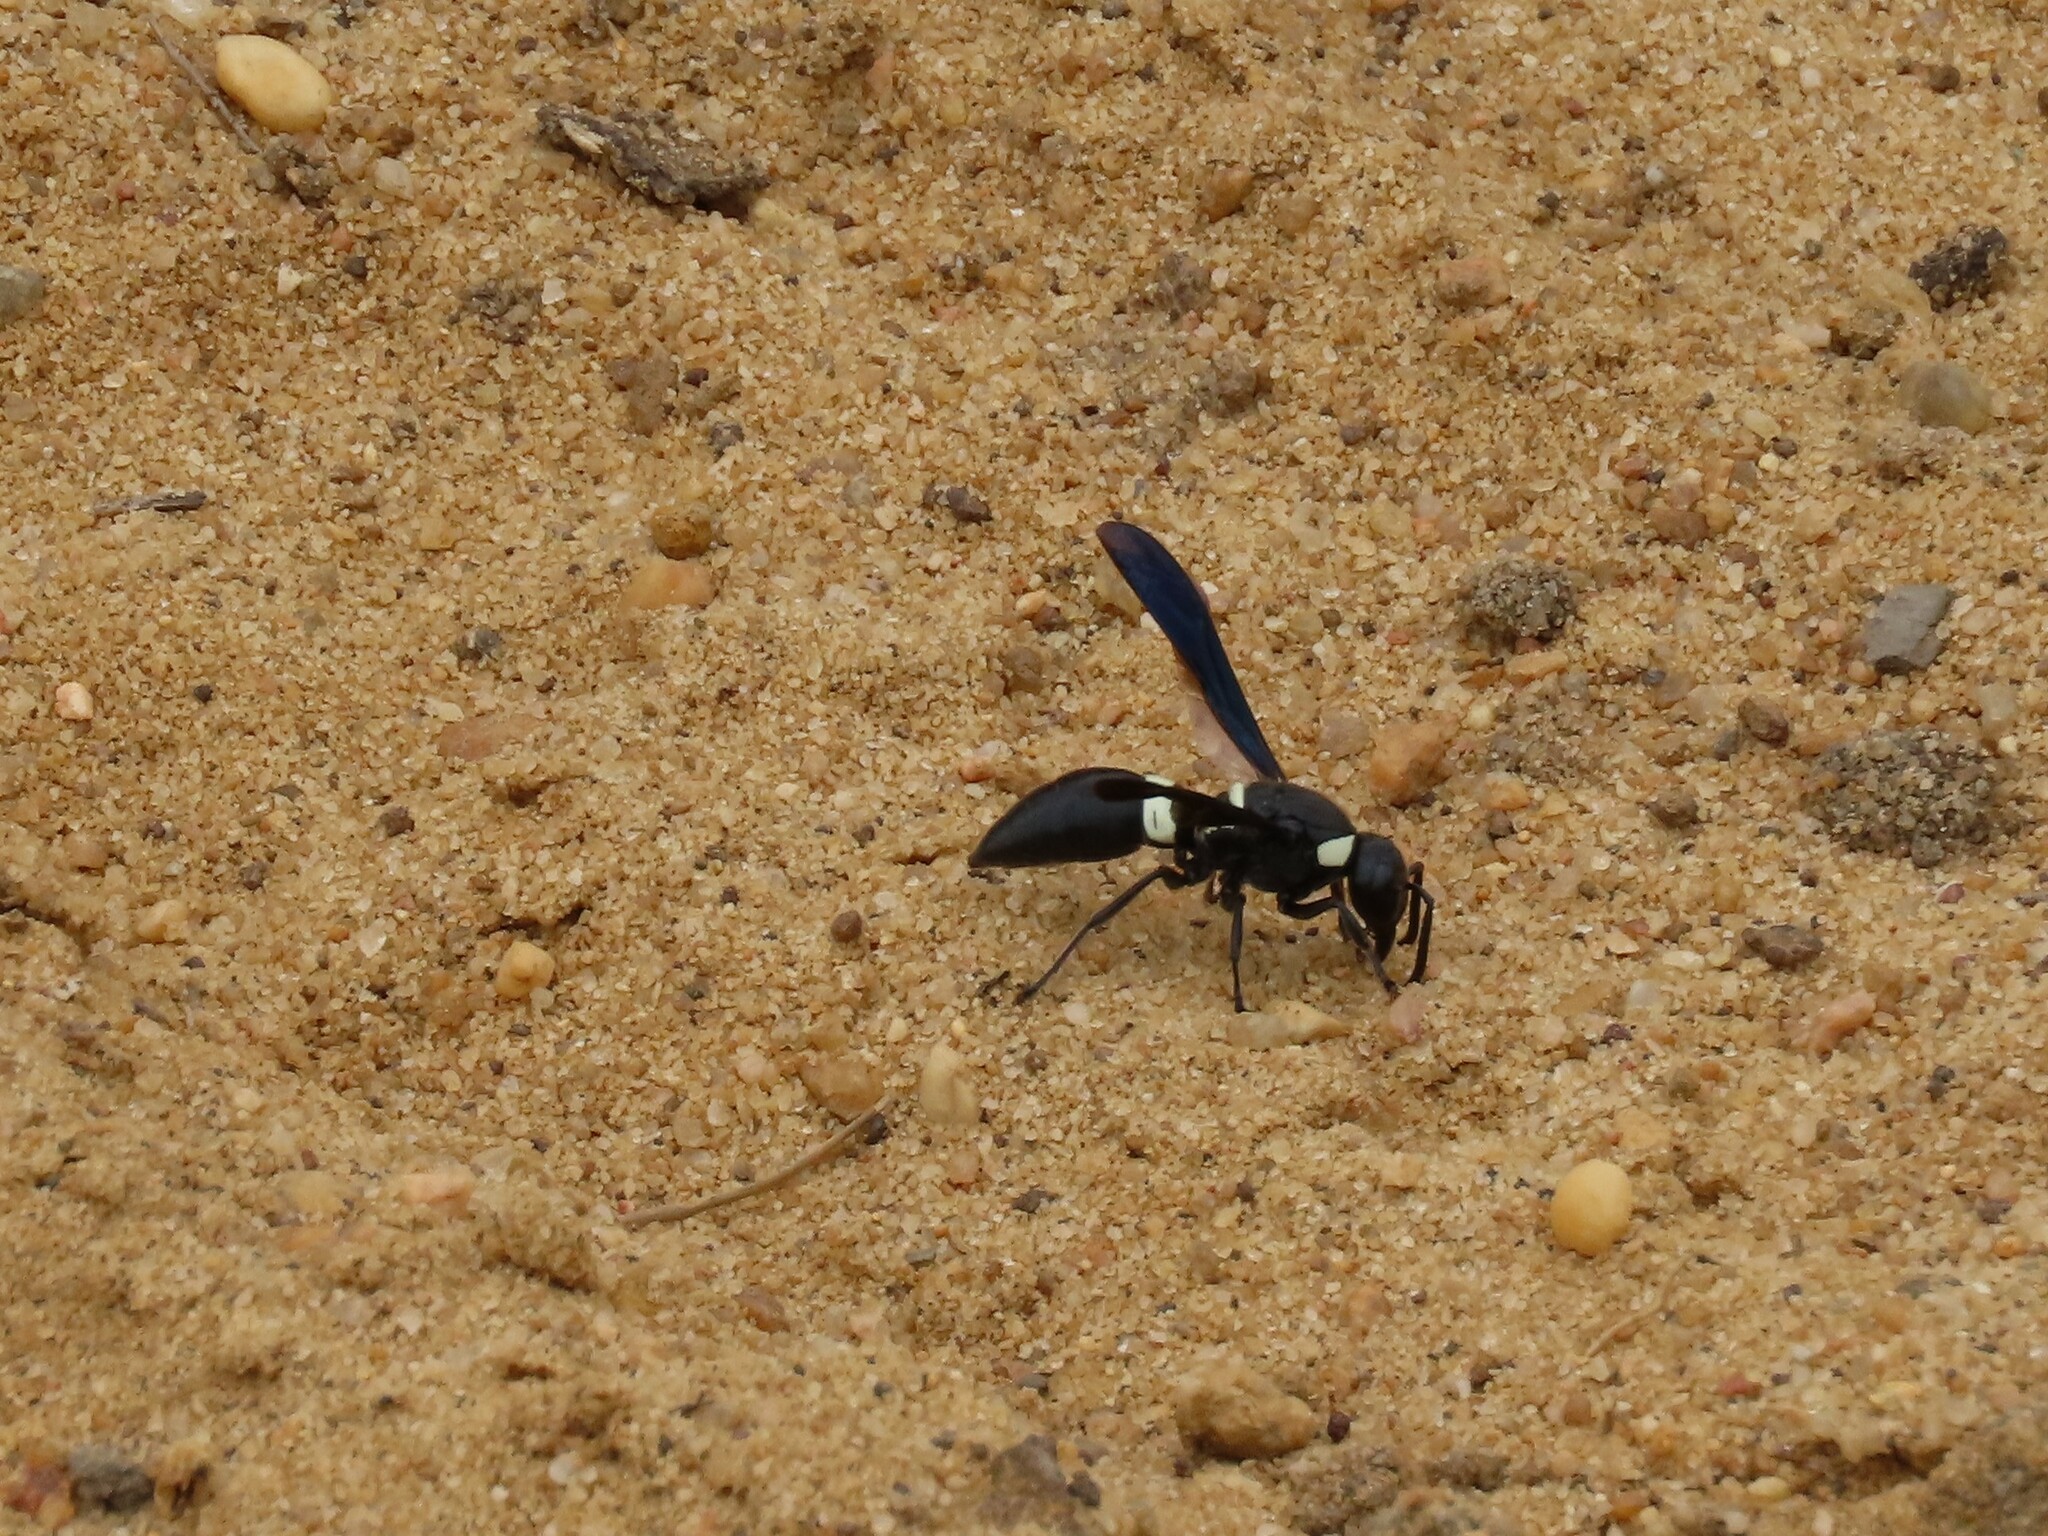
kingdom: Animalia
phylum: Arthropoda
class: Insecta
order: Hymenoptera
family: Eumenidae
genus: Monobia
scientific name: Monobia quadridens
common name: Four-toothed mason wasp
